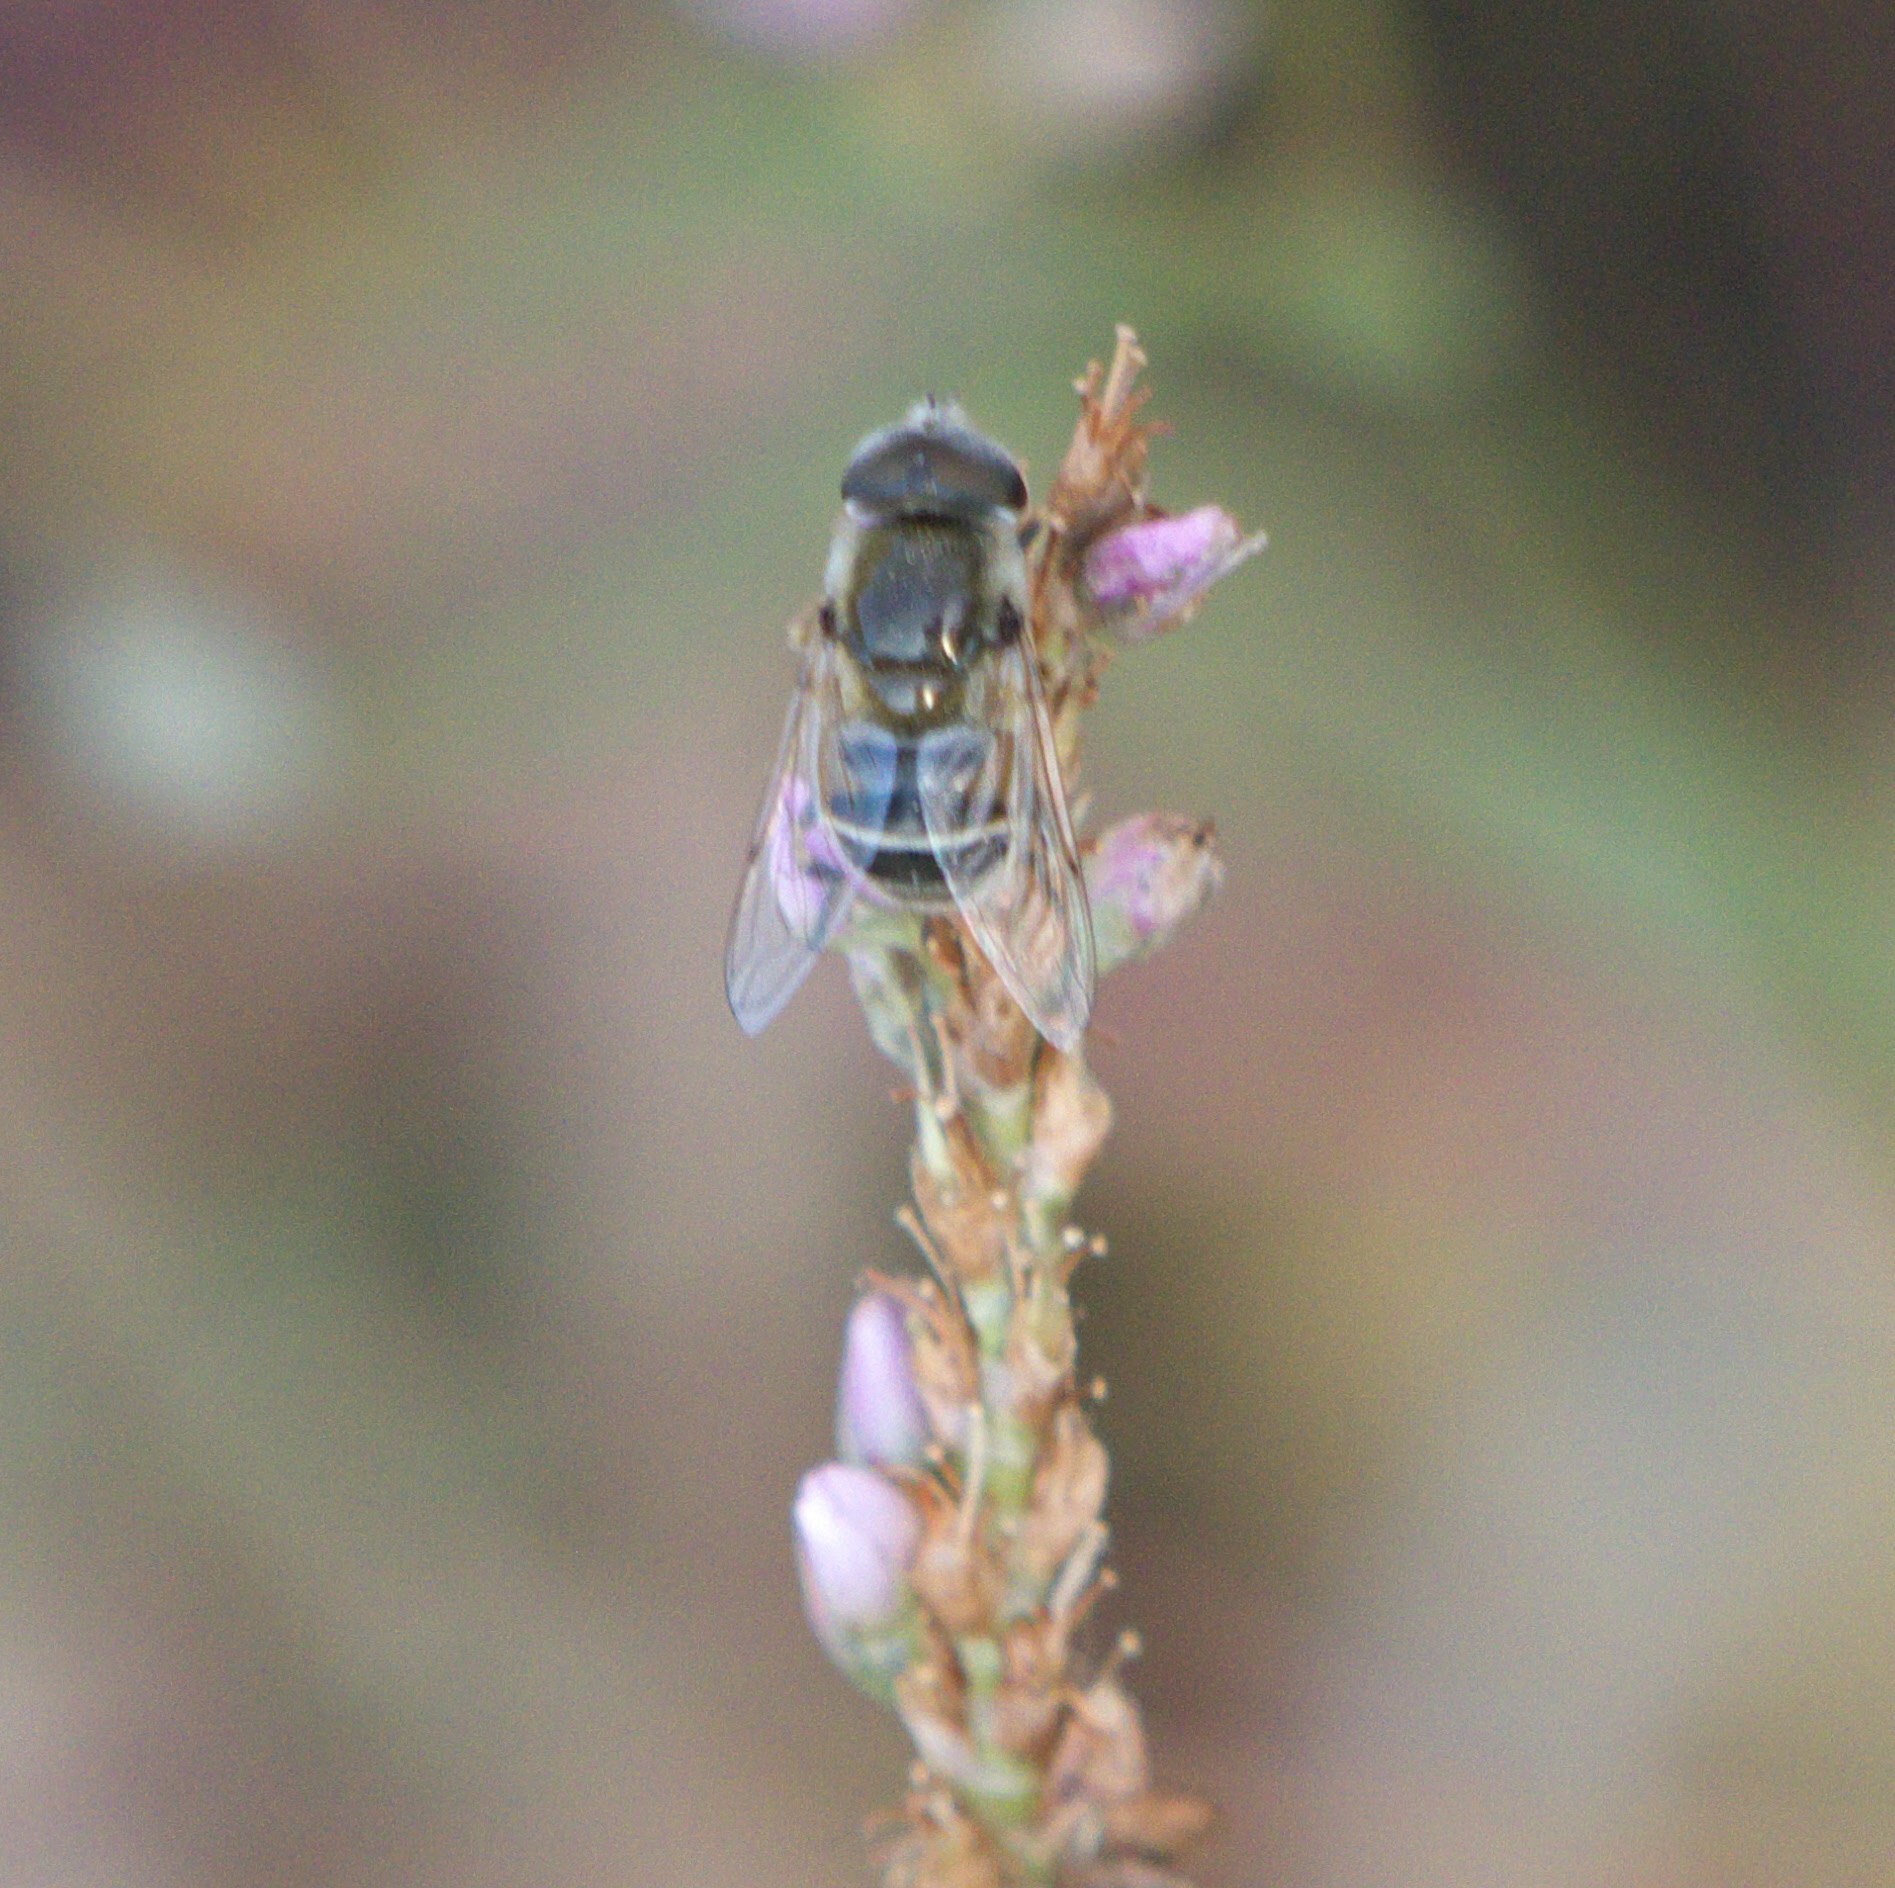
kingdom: Animalia
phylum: Arthropoda
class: Insecta
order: Diptera
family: Syrphidae
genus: Eristalis
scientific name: Eristalis stipator
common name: Yellow-shouldered drone fly
